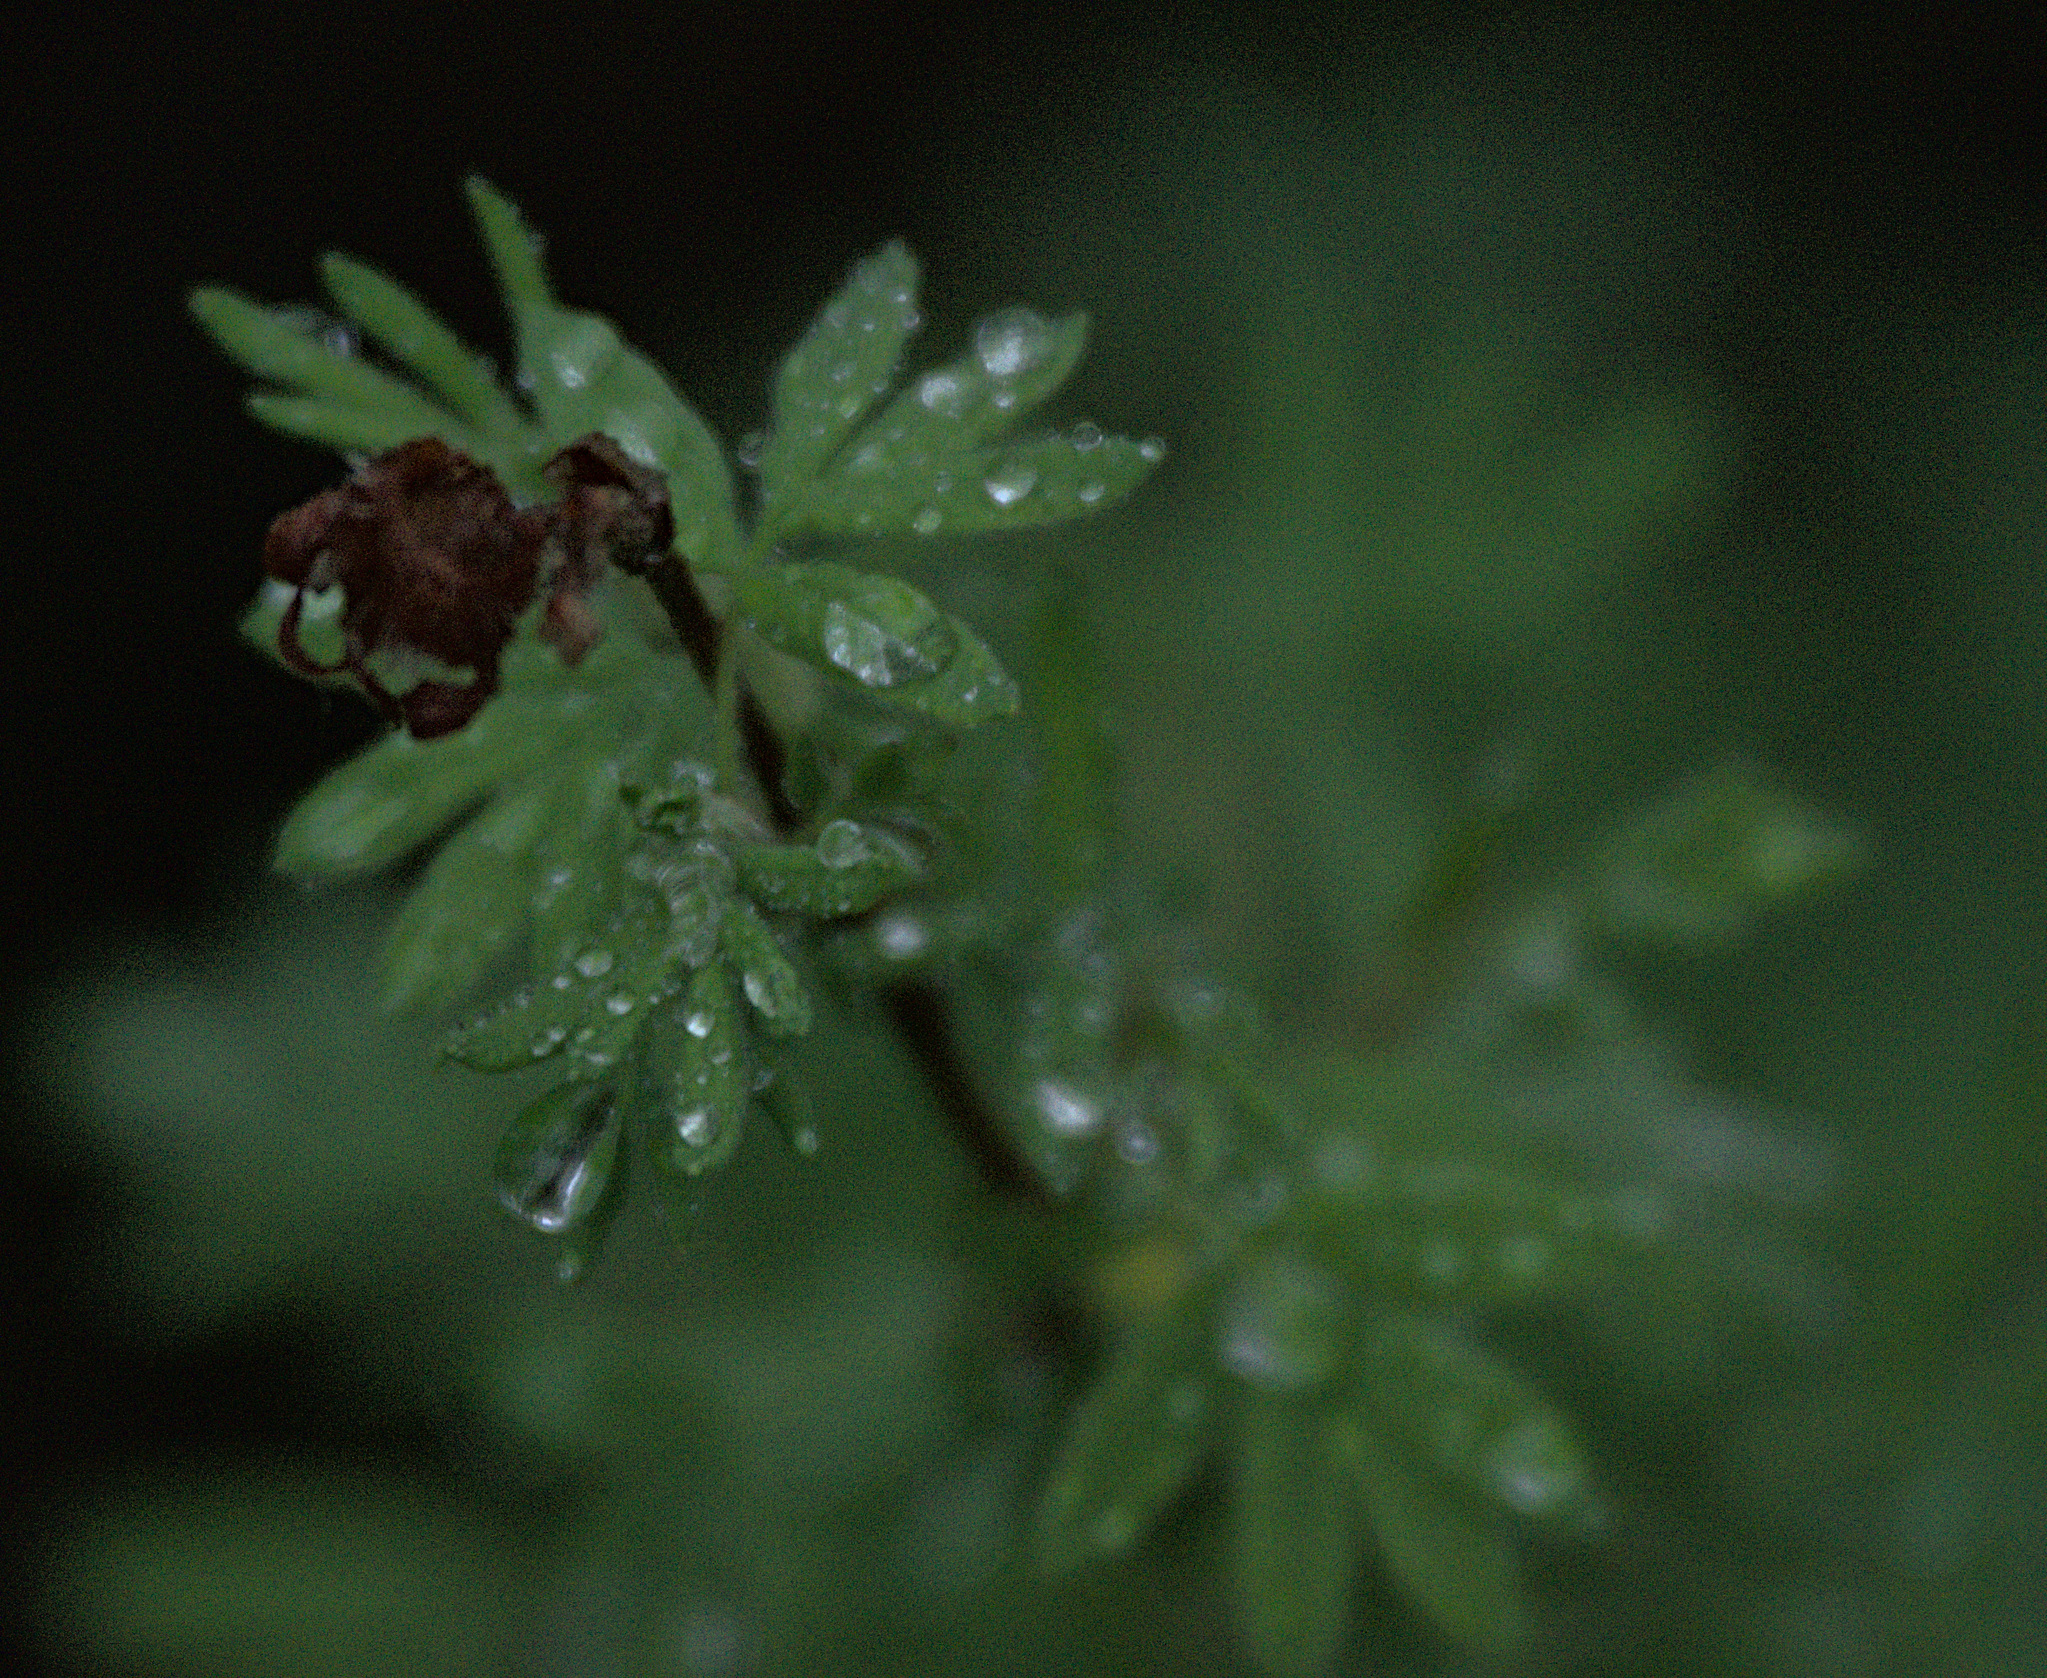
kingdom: Plantae
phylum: Tracheophyta
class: Magnoliopsida
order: Rosales
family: Rosaceae
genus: Dasiphora
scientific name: Dasiphora fruticosa
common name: Shrubby cinquefoil
